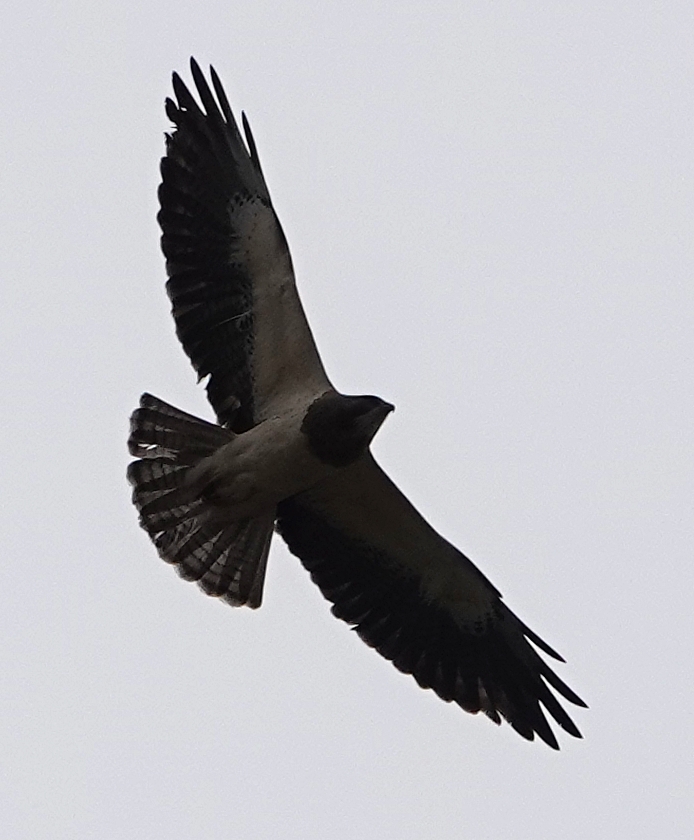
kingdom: Animalia
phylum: Chordata
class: Aves
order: Accipitriformes
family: Accipitridae
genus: Buteo
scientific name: Buteo swainsoni
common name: Swainson's hawk
